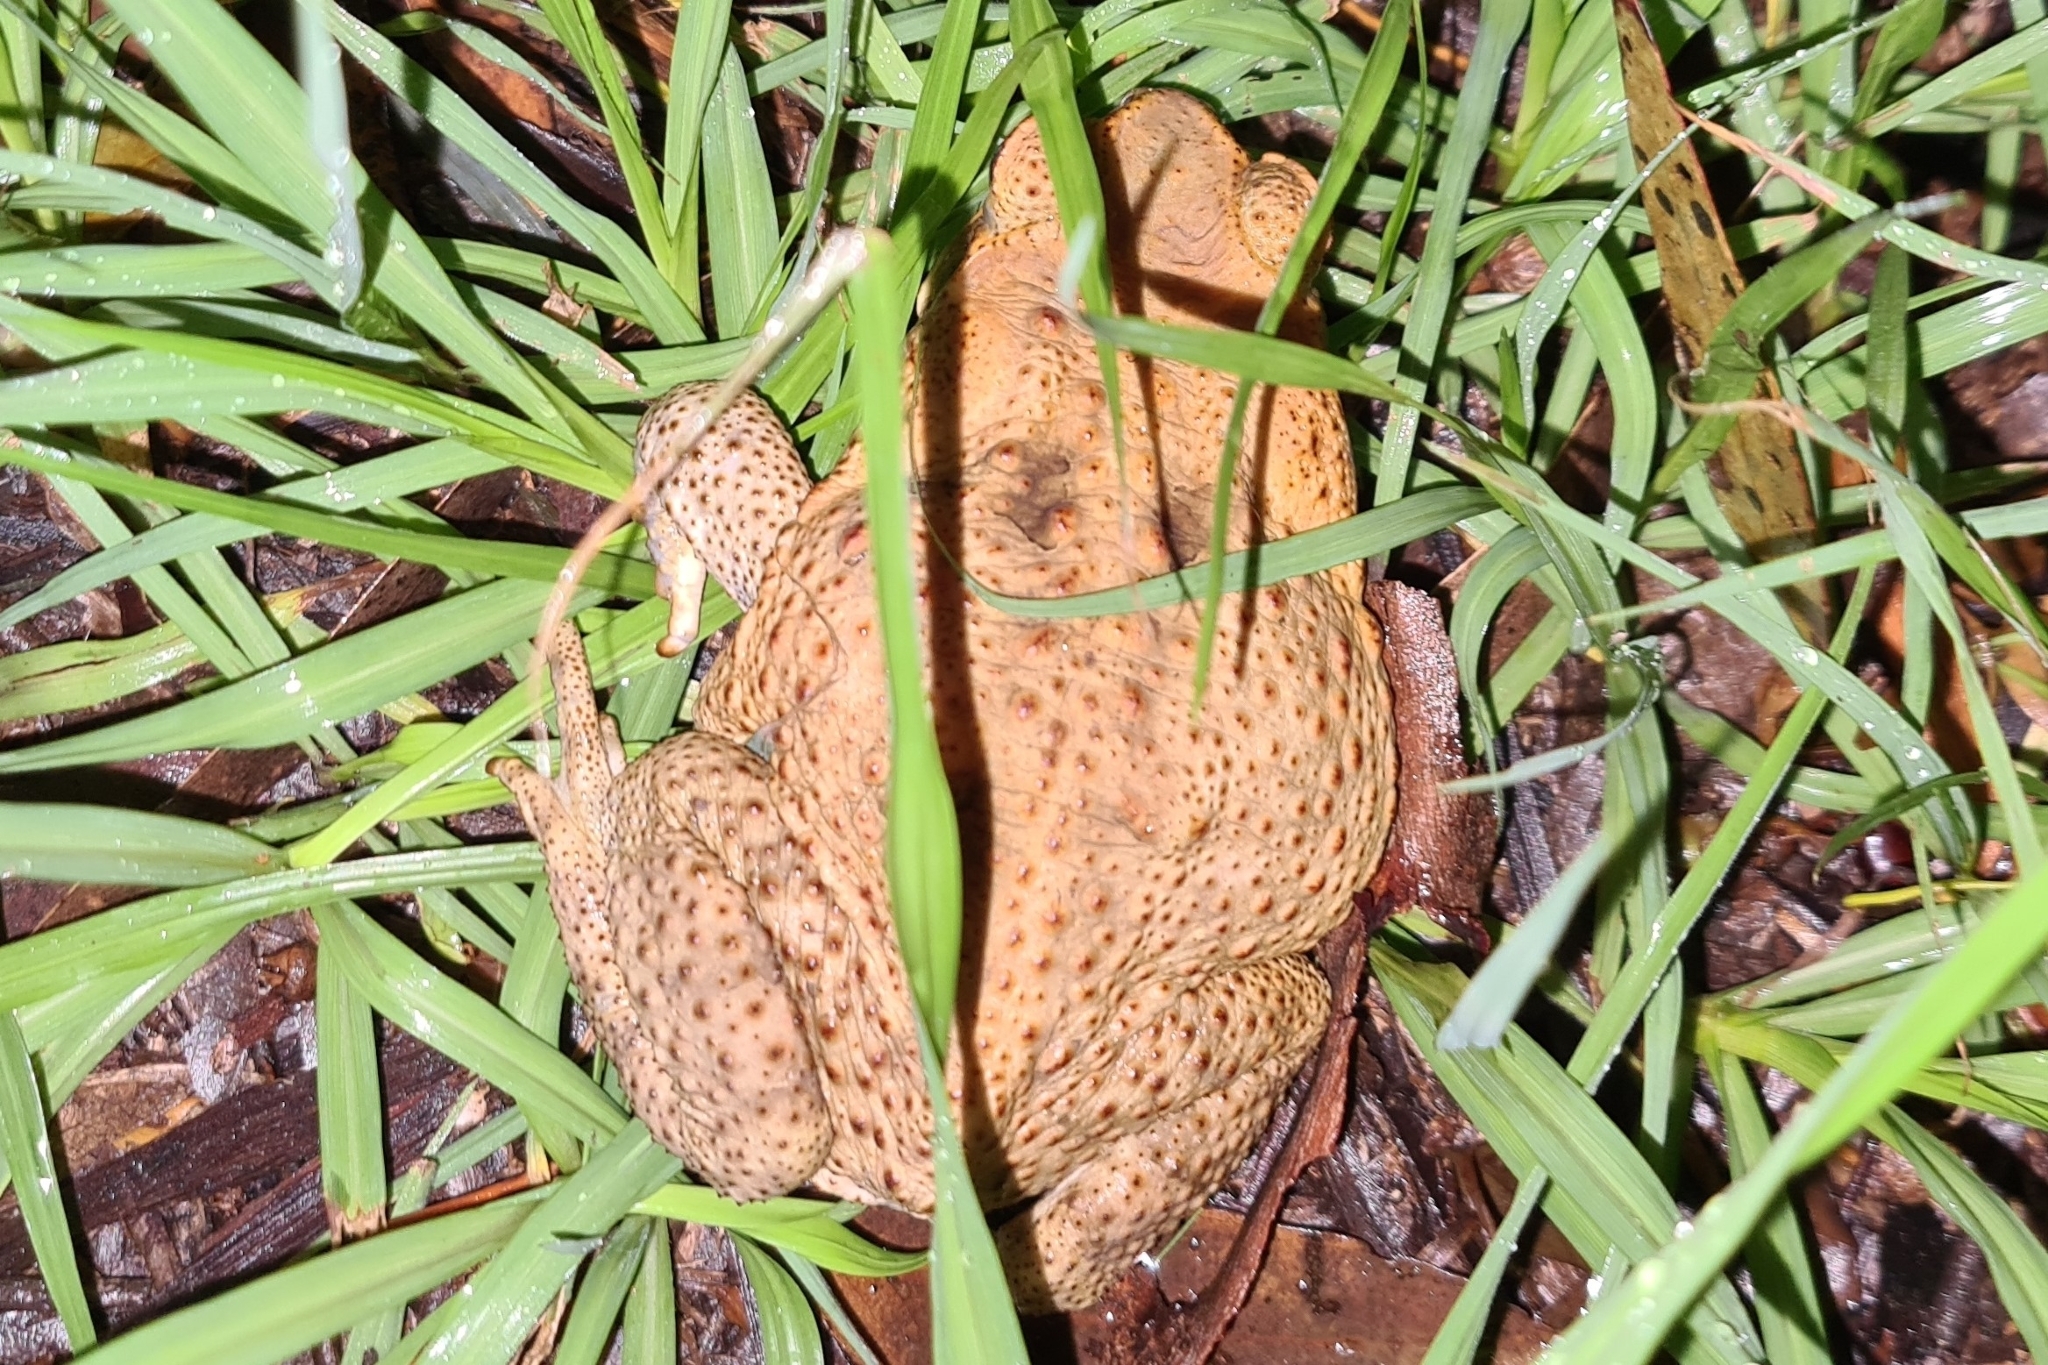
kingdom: Animalia
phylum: Chordata
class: Amphibia
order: Anura
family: Bufonidae
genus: Rhinella
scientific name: Rhinella marina
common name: Cane toad
